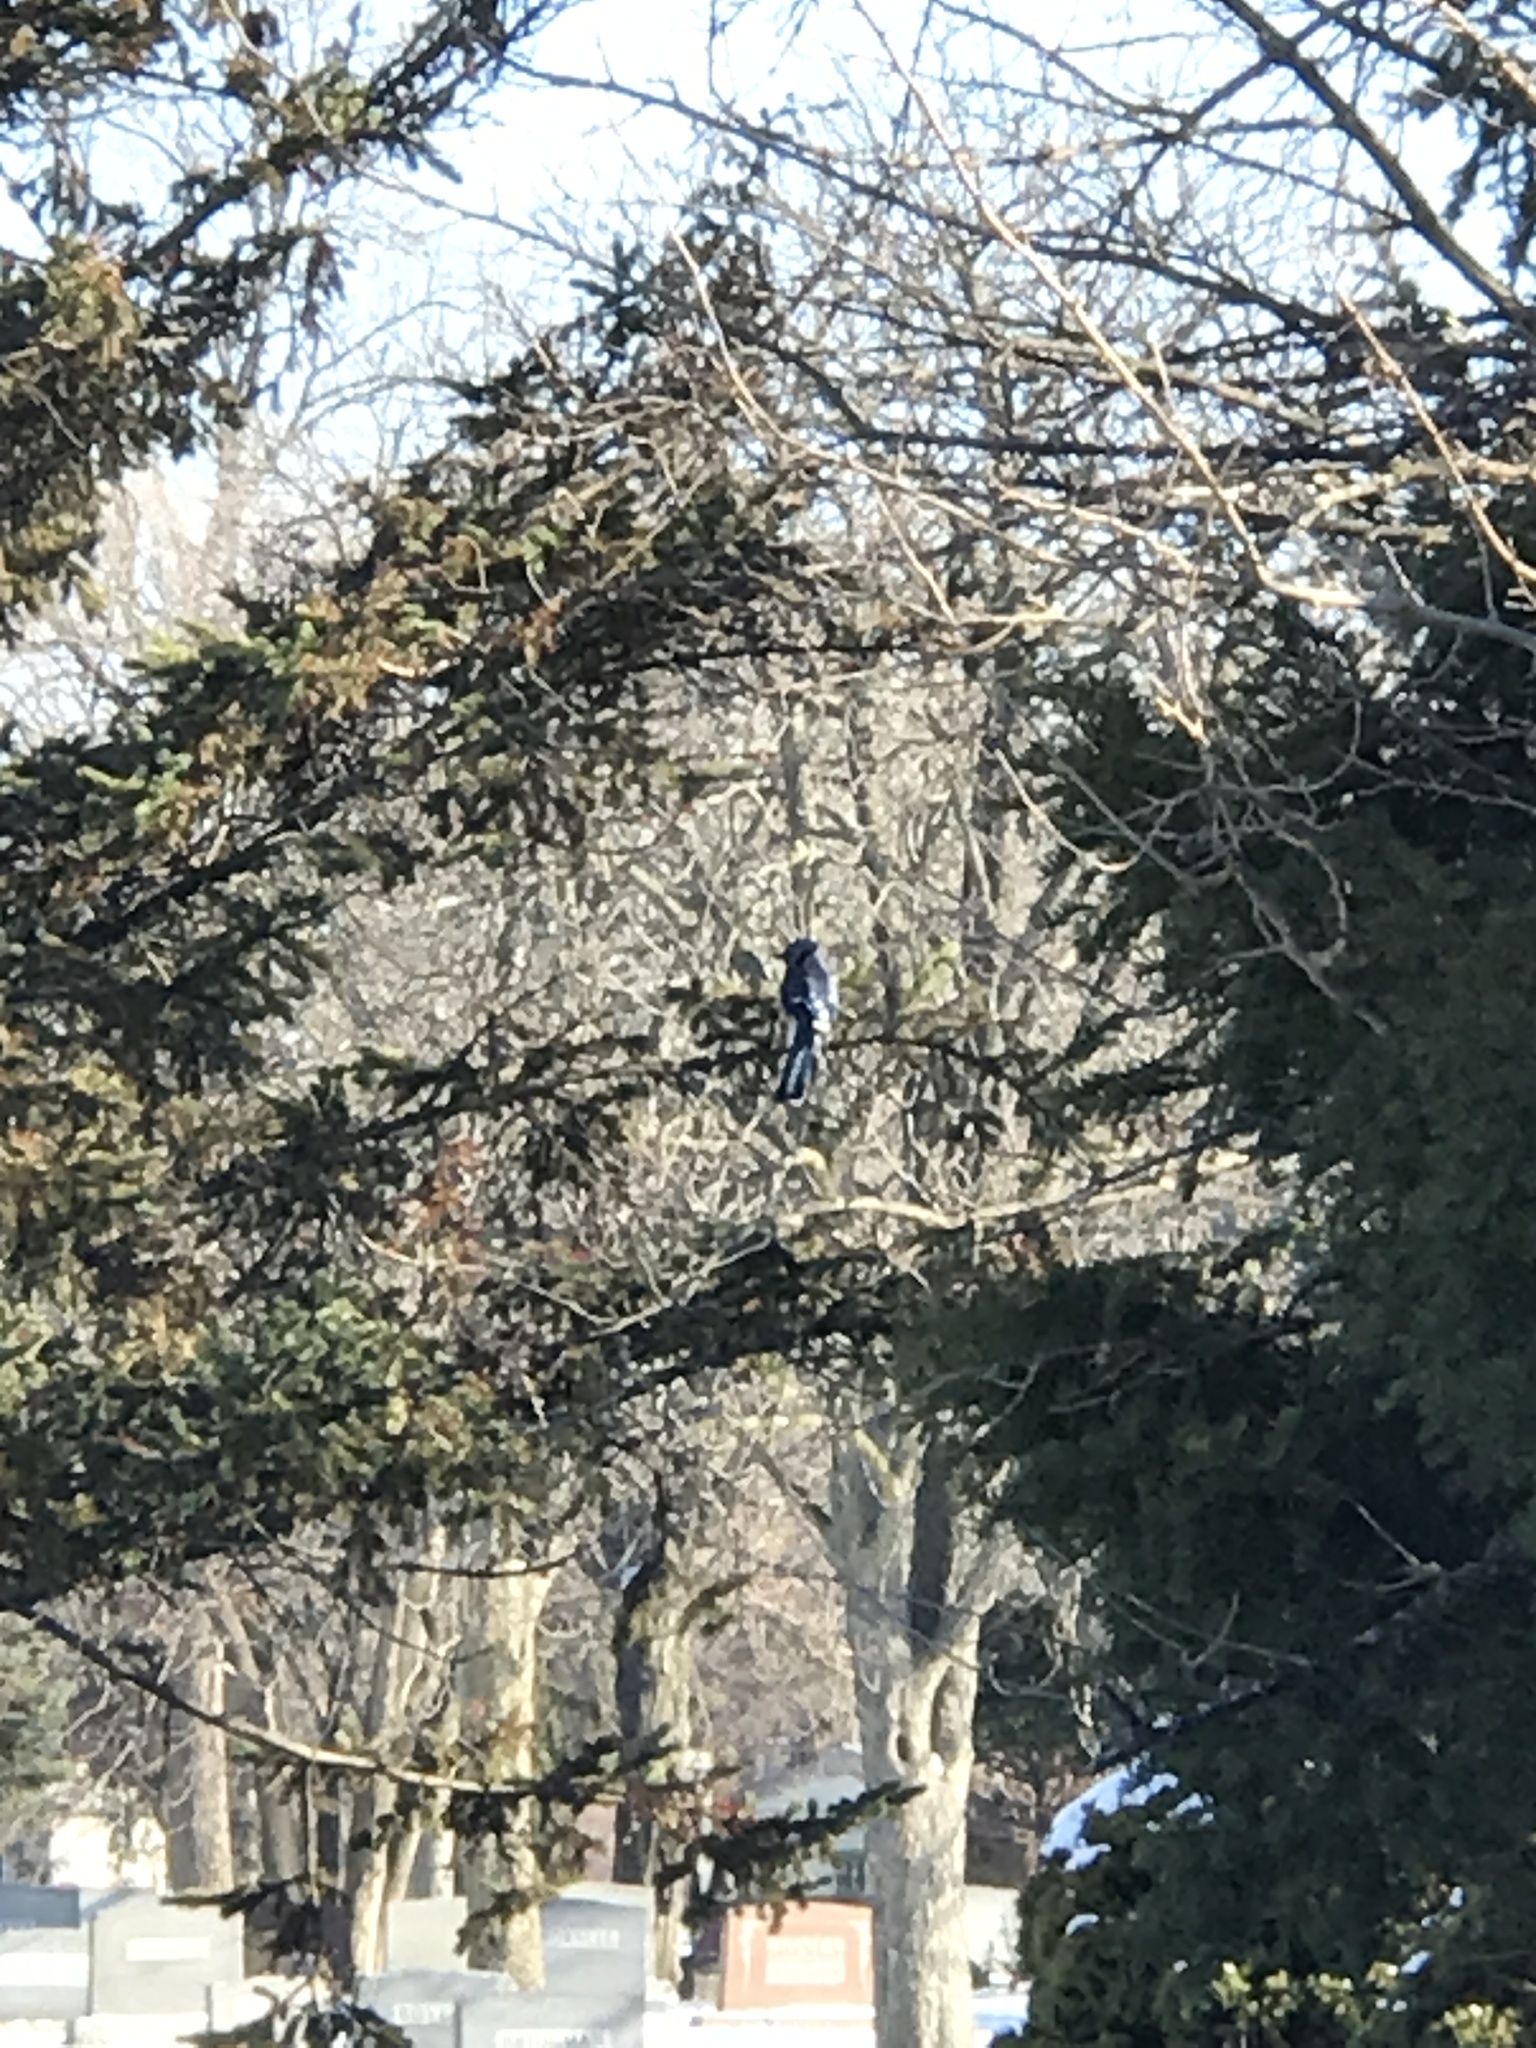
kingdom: Animalia
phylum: Chordata
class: Aves
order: Passeriformes
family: Corvidae
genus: Cyanocitta
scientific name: Cyanocitta cristata
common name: Blue jay
